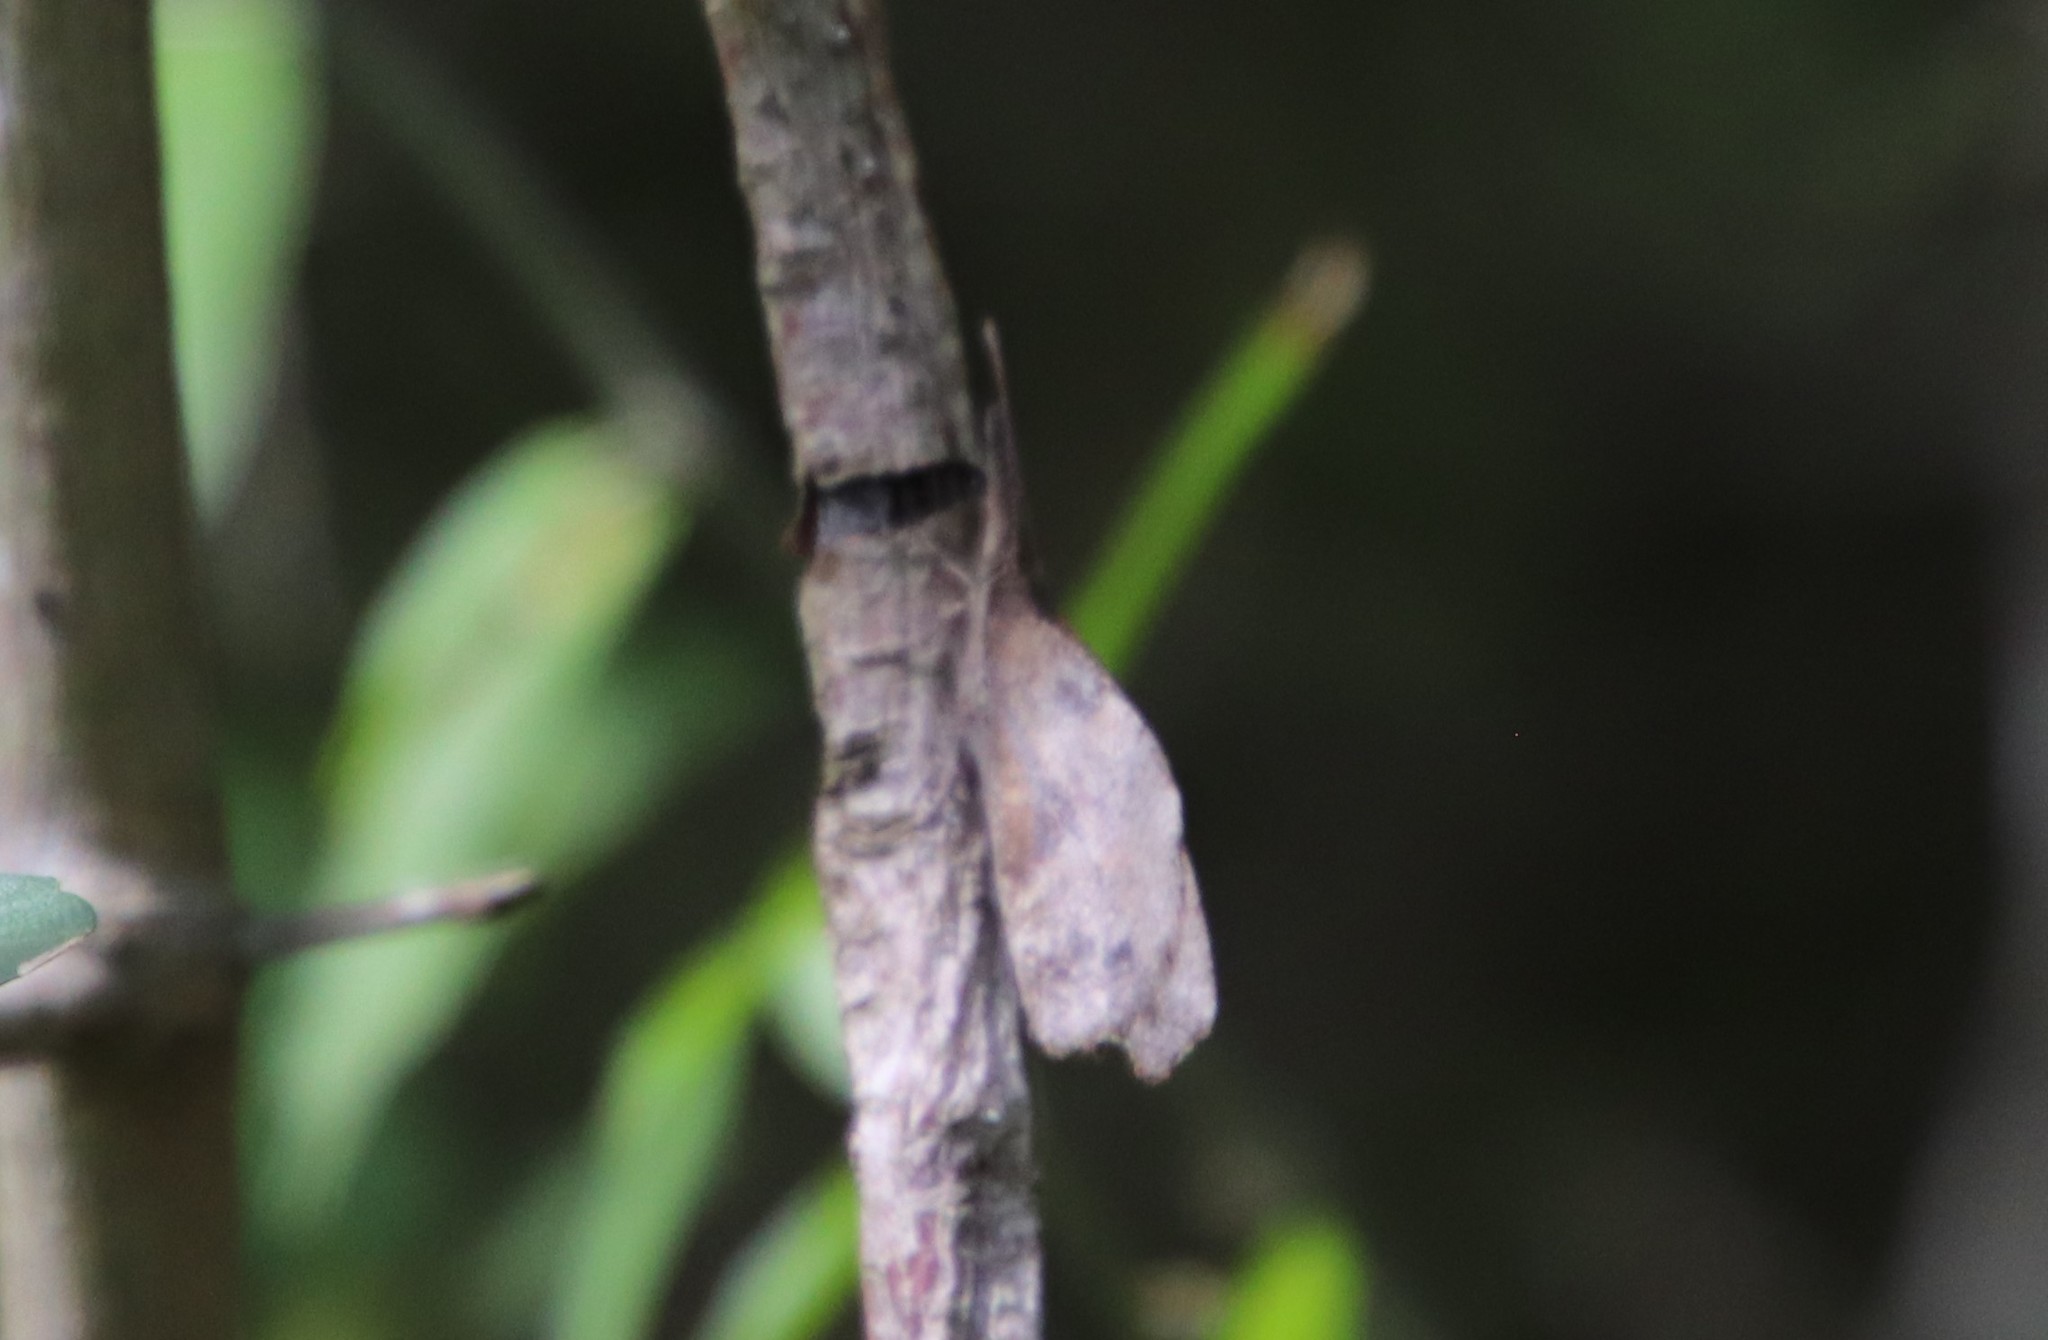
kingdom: Animalia
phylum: Arthropoda
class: Insecta
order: Lepidoptera
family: Nymphalidae
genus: Libytheana
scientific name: Libytheana carinenta
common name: American snout
